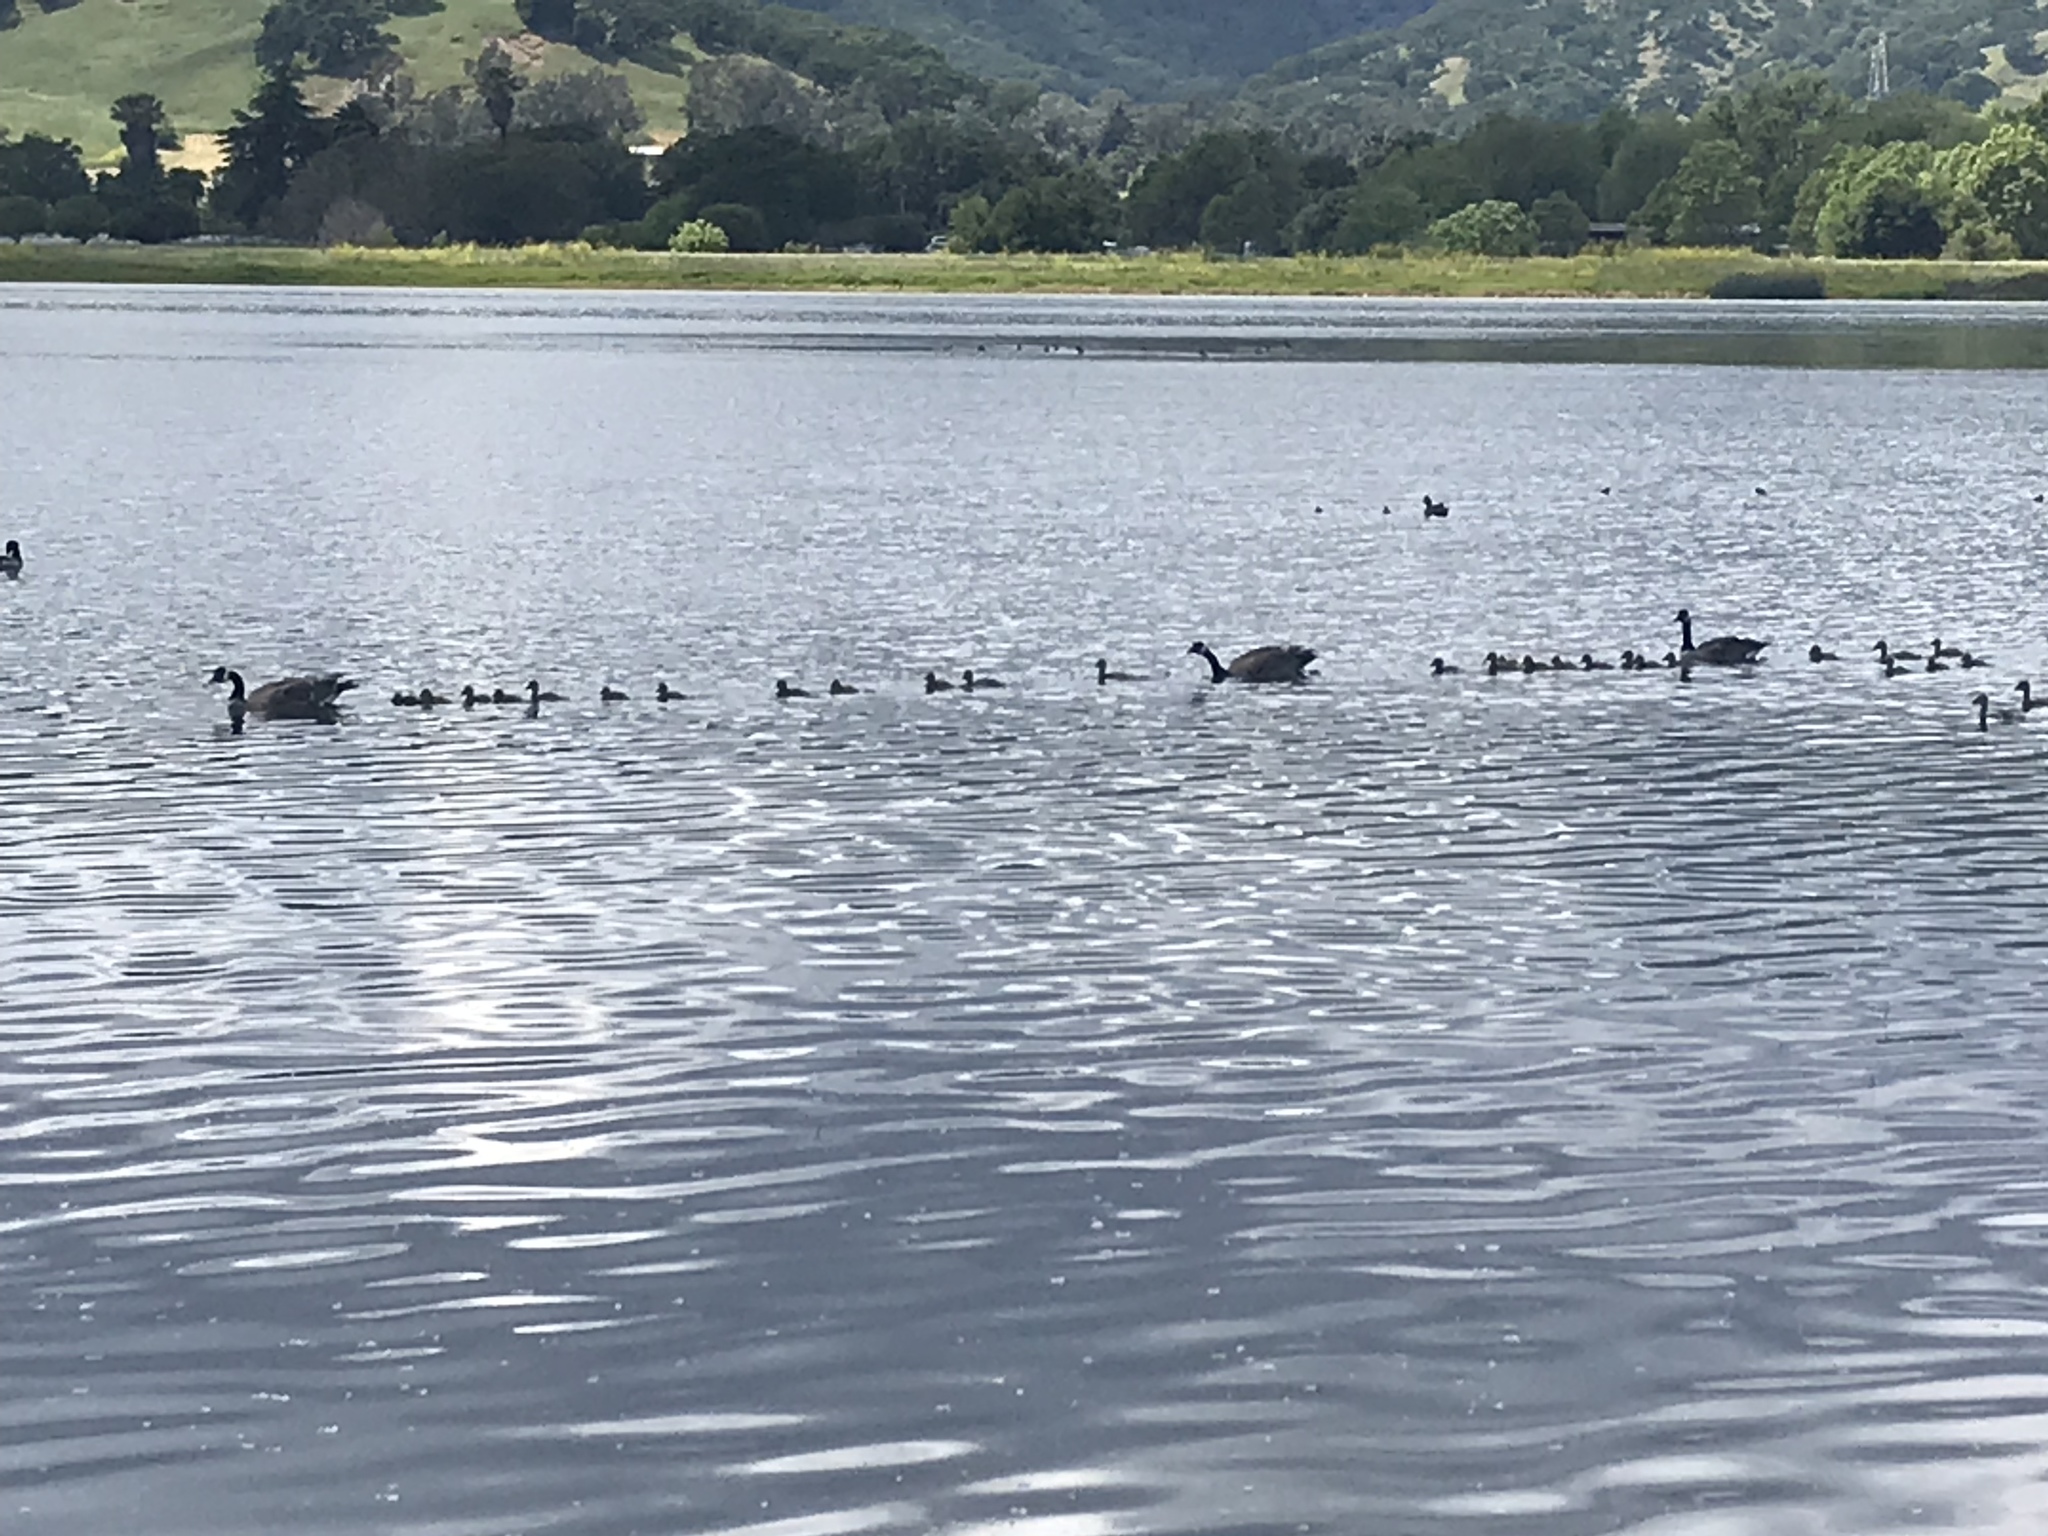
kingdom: Animalia
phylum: Chordata
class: Aves
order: Anseriformes
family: Anatidae
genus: Branta
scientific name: Branta canadensis
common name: Canada goose
